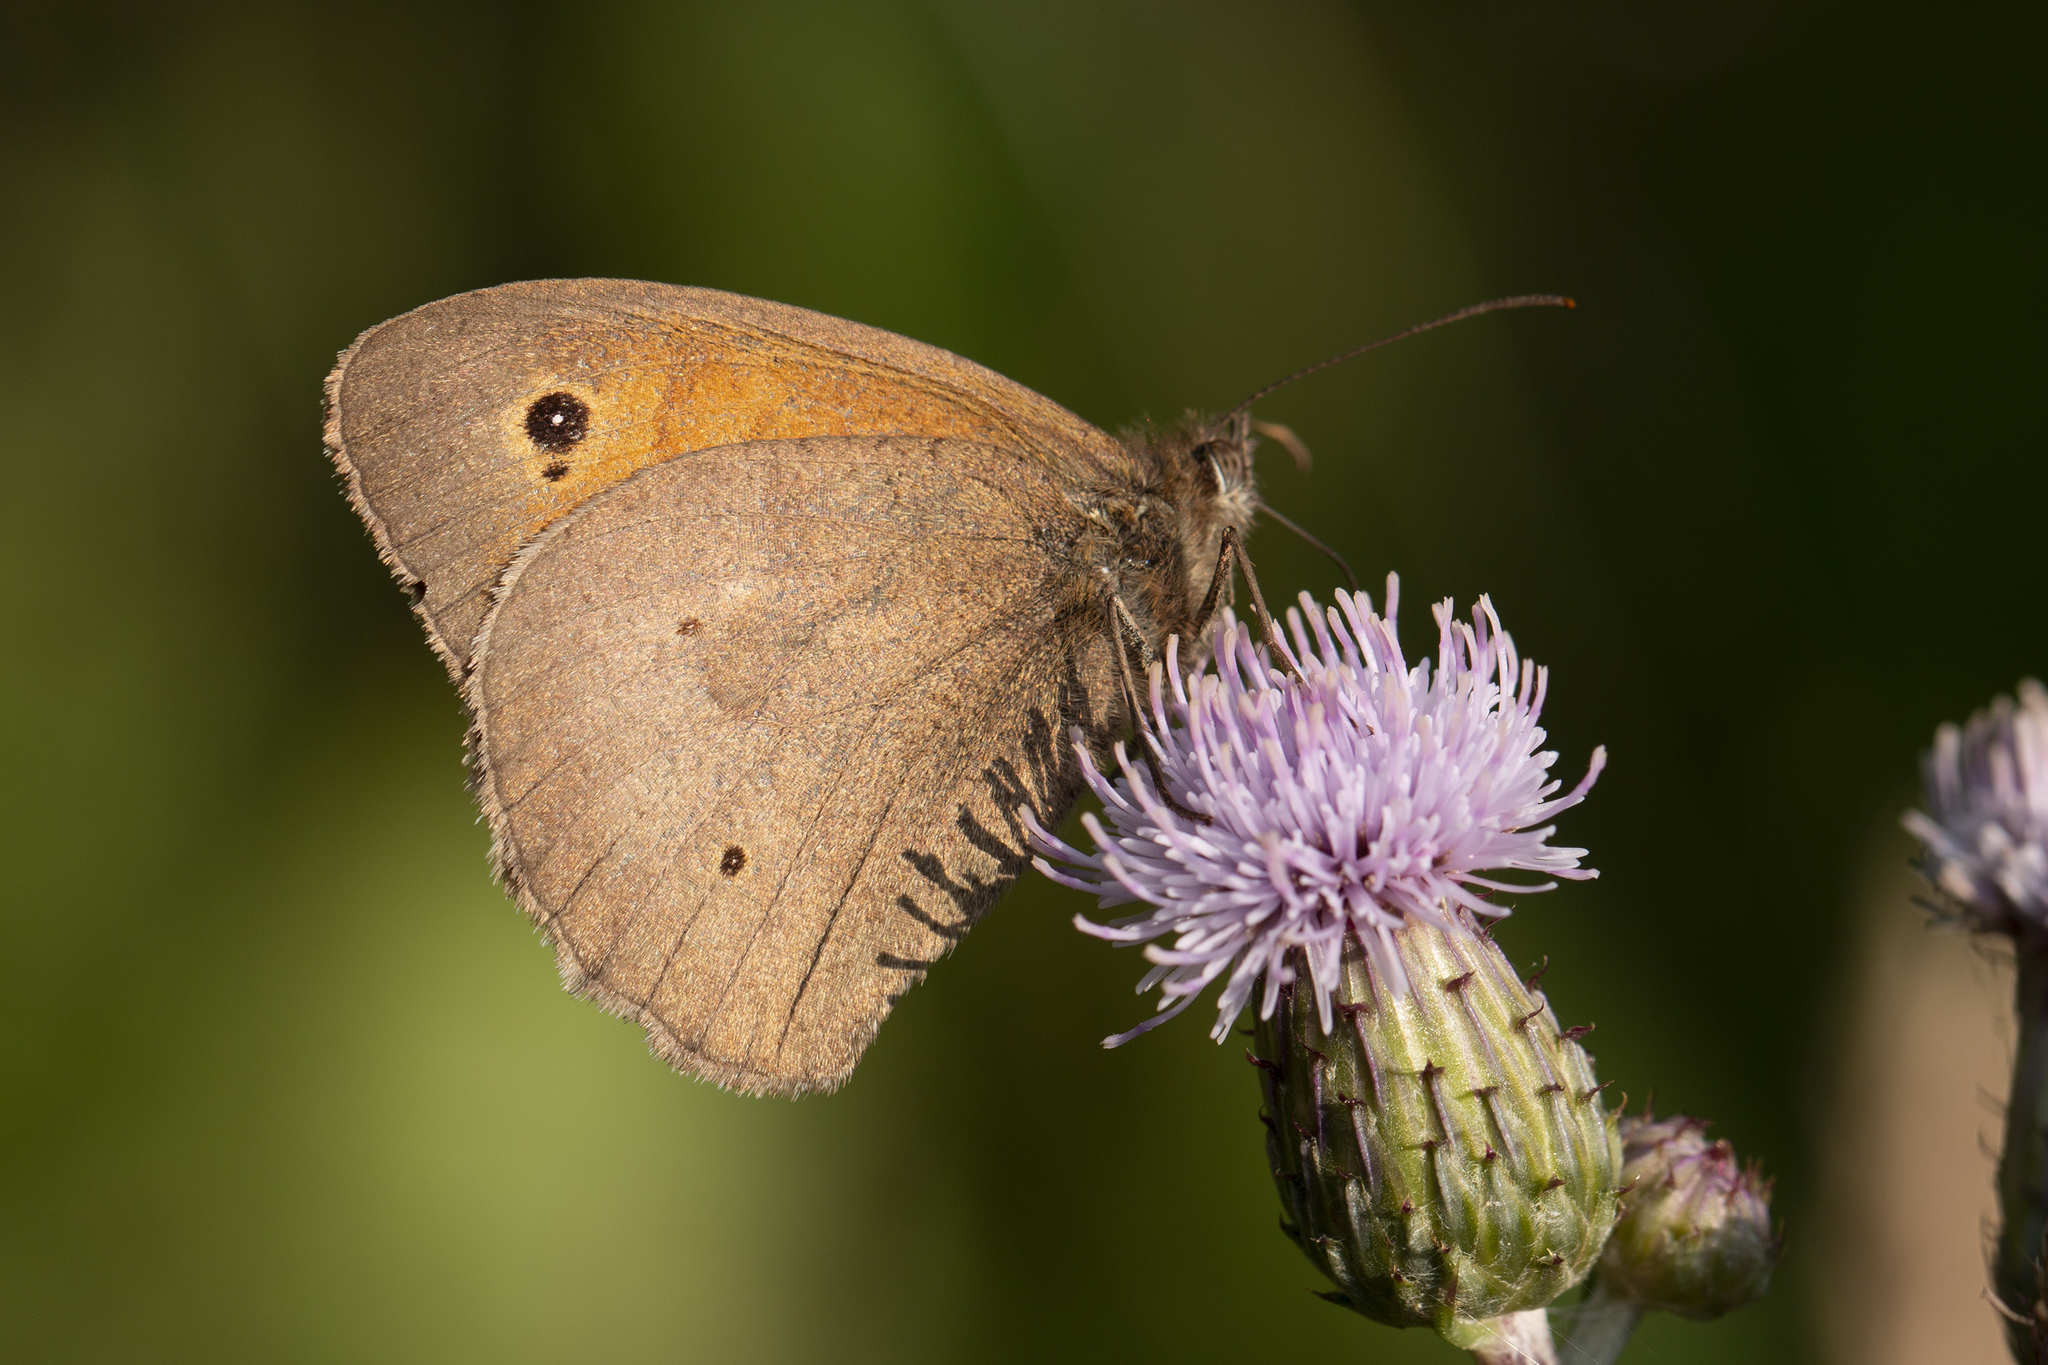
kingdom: Animalia
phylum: Arthropoda
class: Insecta
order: Lepidoptera
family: Nymphalidae
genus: Maniola
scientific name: Maniola jurtina
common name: Meadow brown
